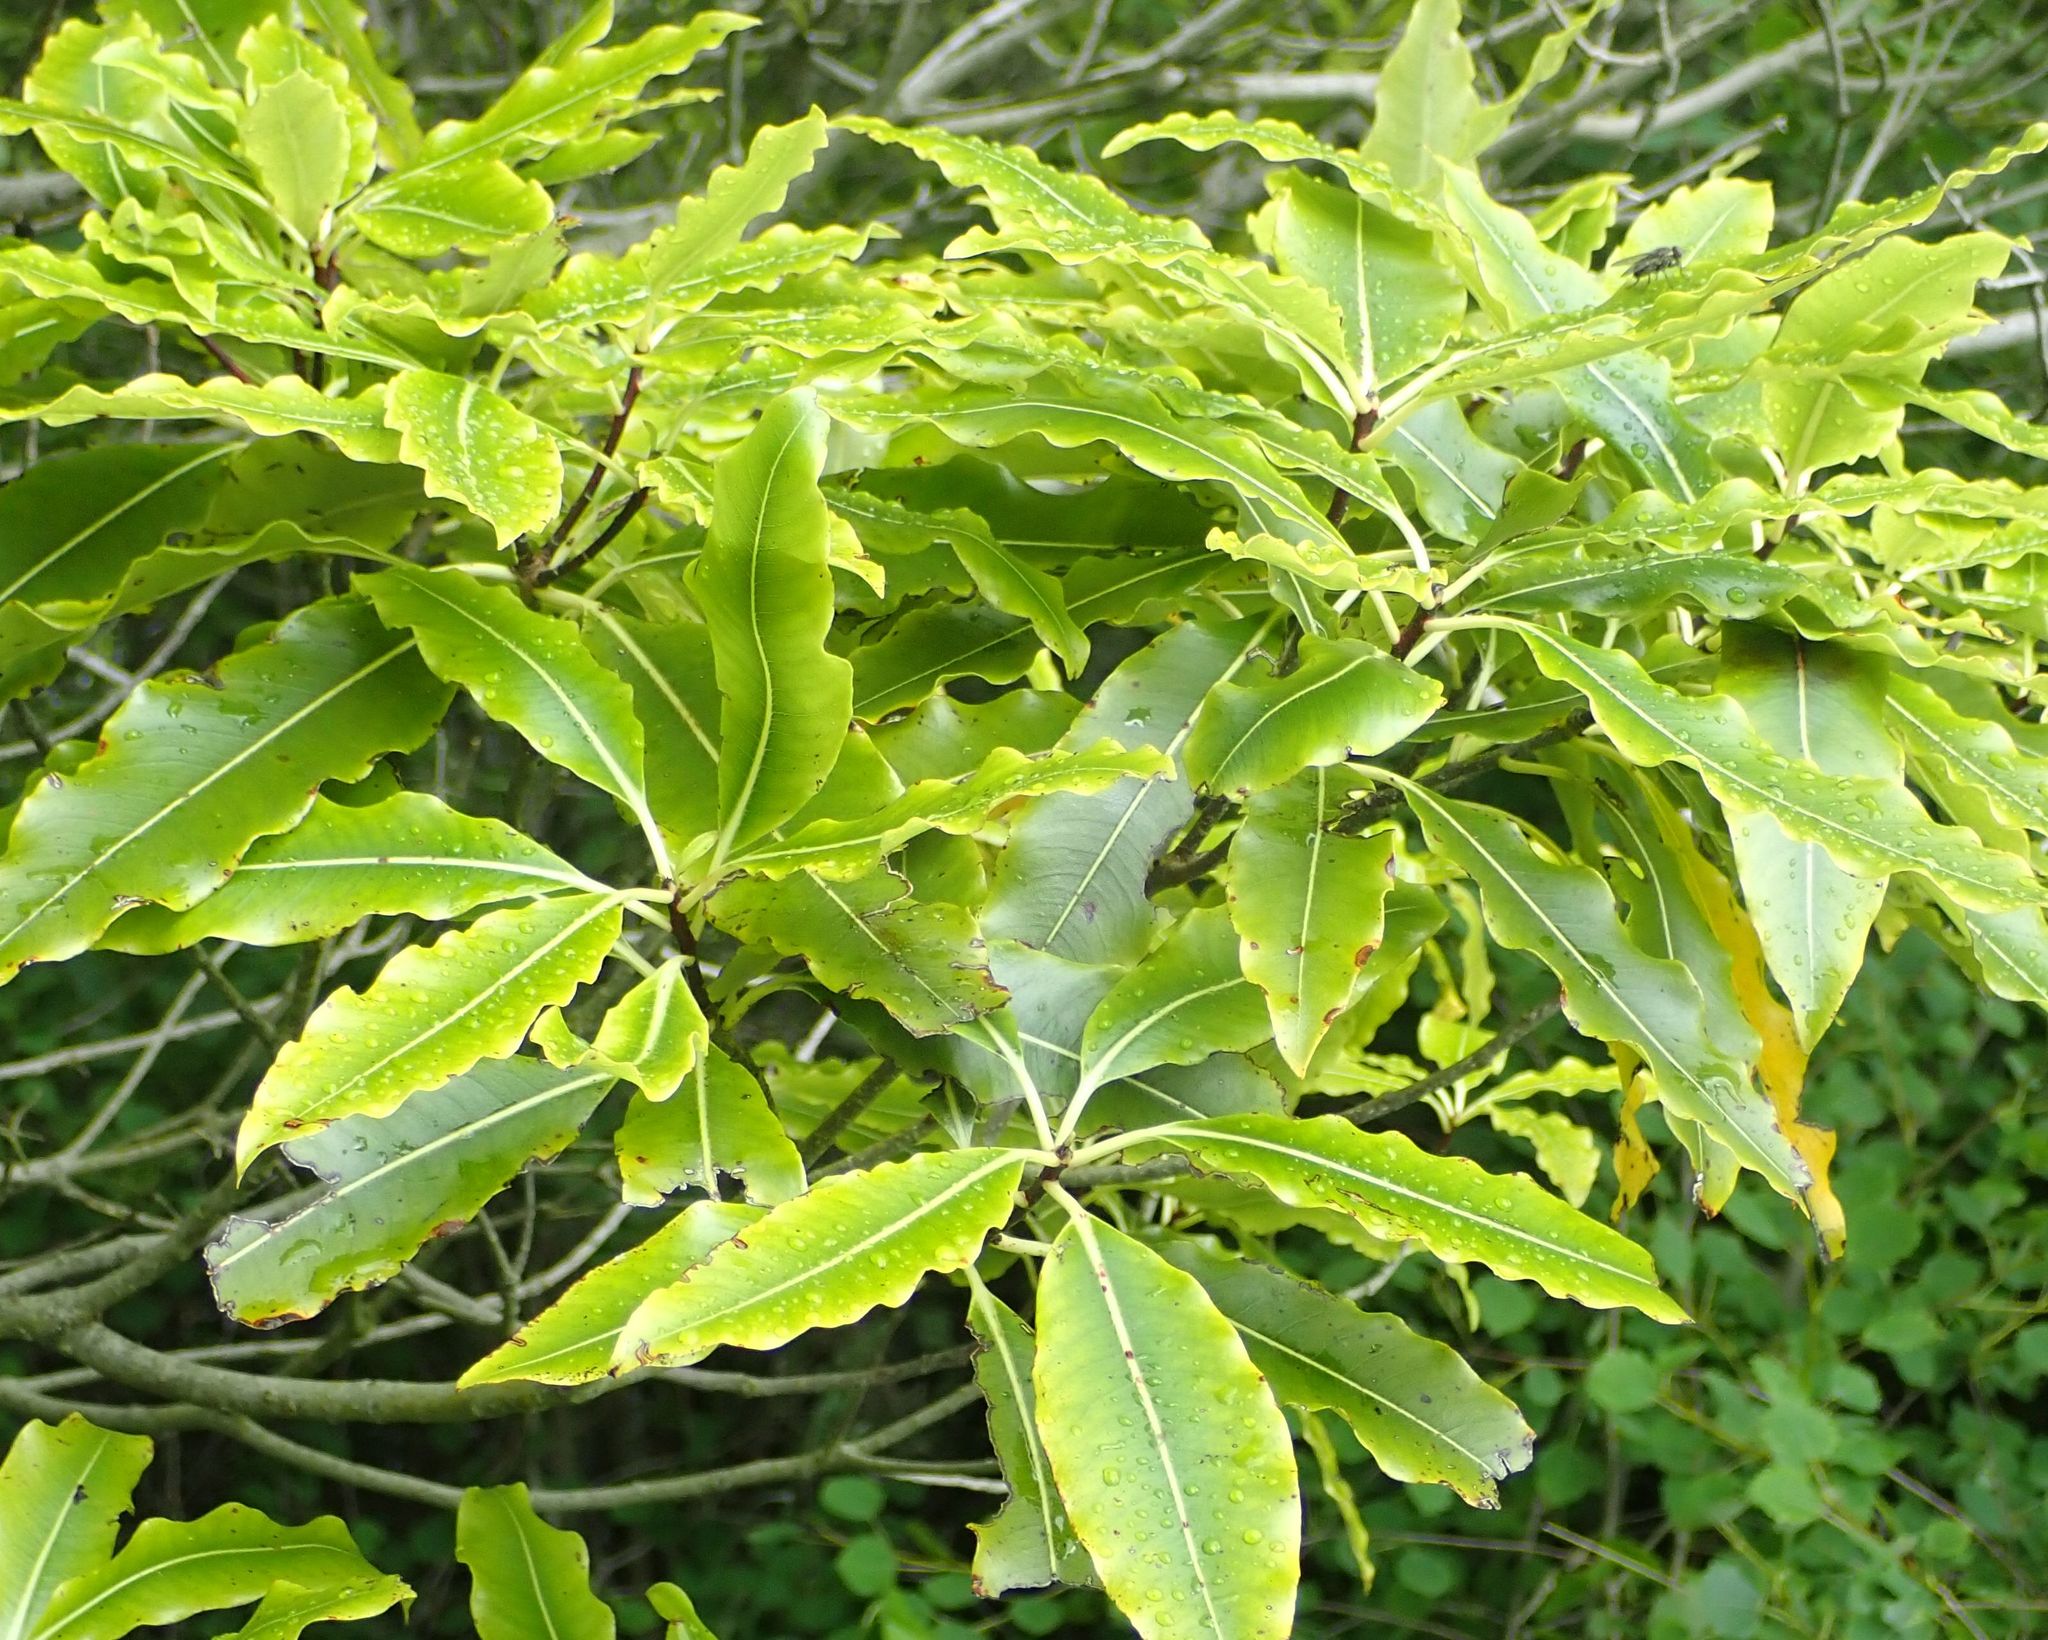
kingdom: Plantae
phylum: Tracheophyta
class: Magnoliopsida
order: Apiales
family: Pittosporaceae
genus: Pittosporum
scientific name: Pittosporum eugenioides
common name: Lemonwood
